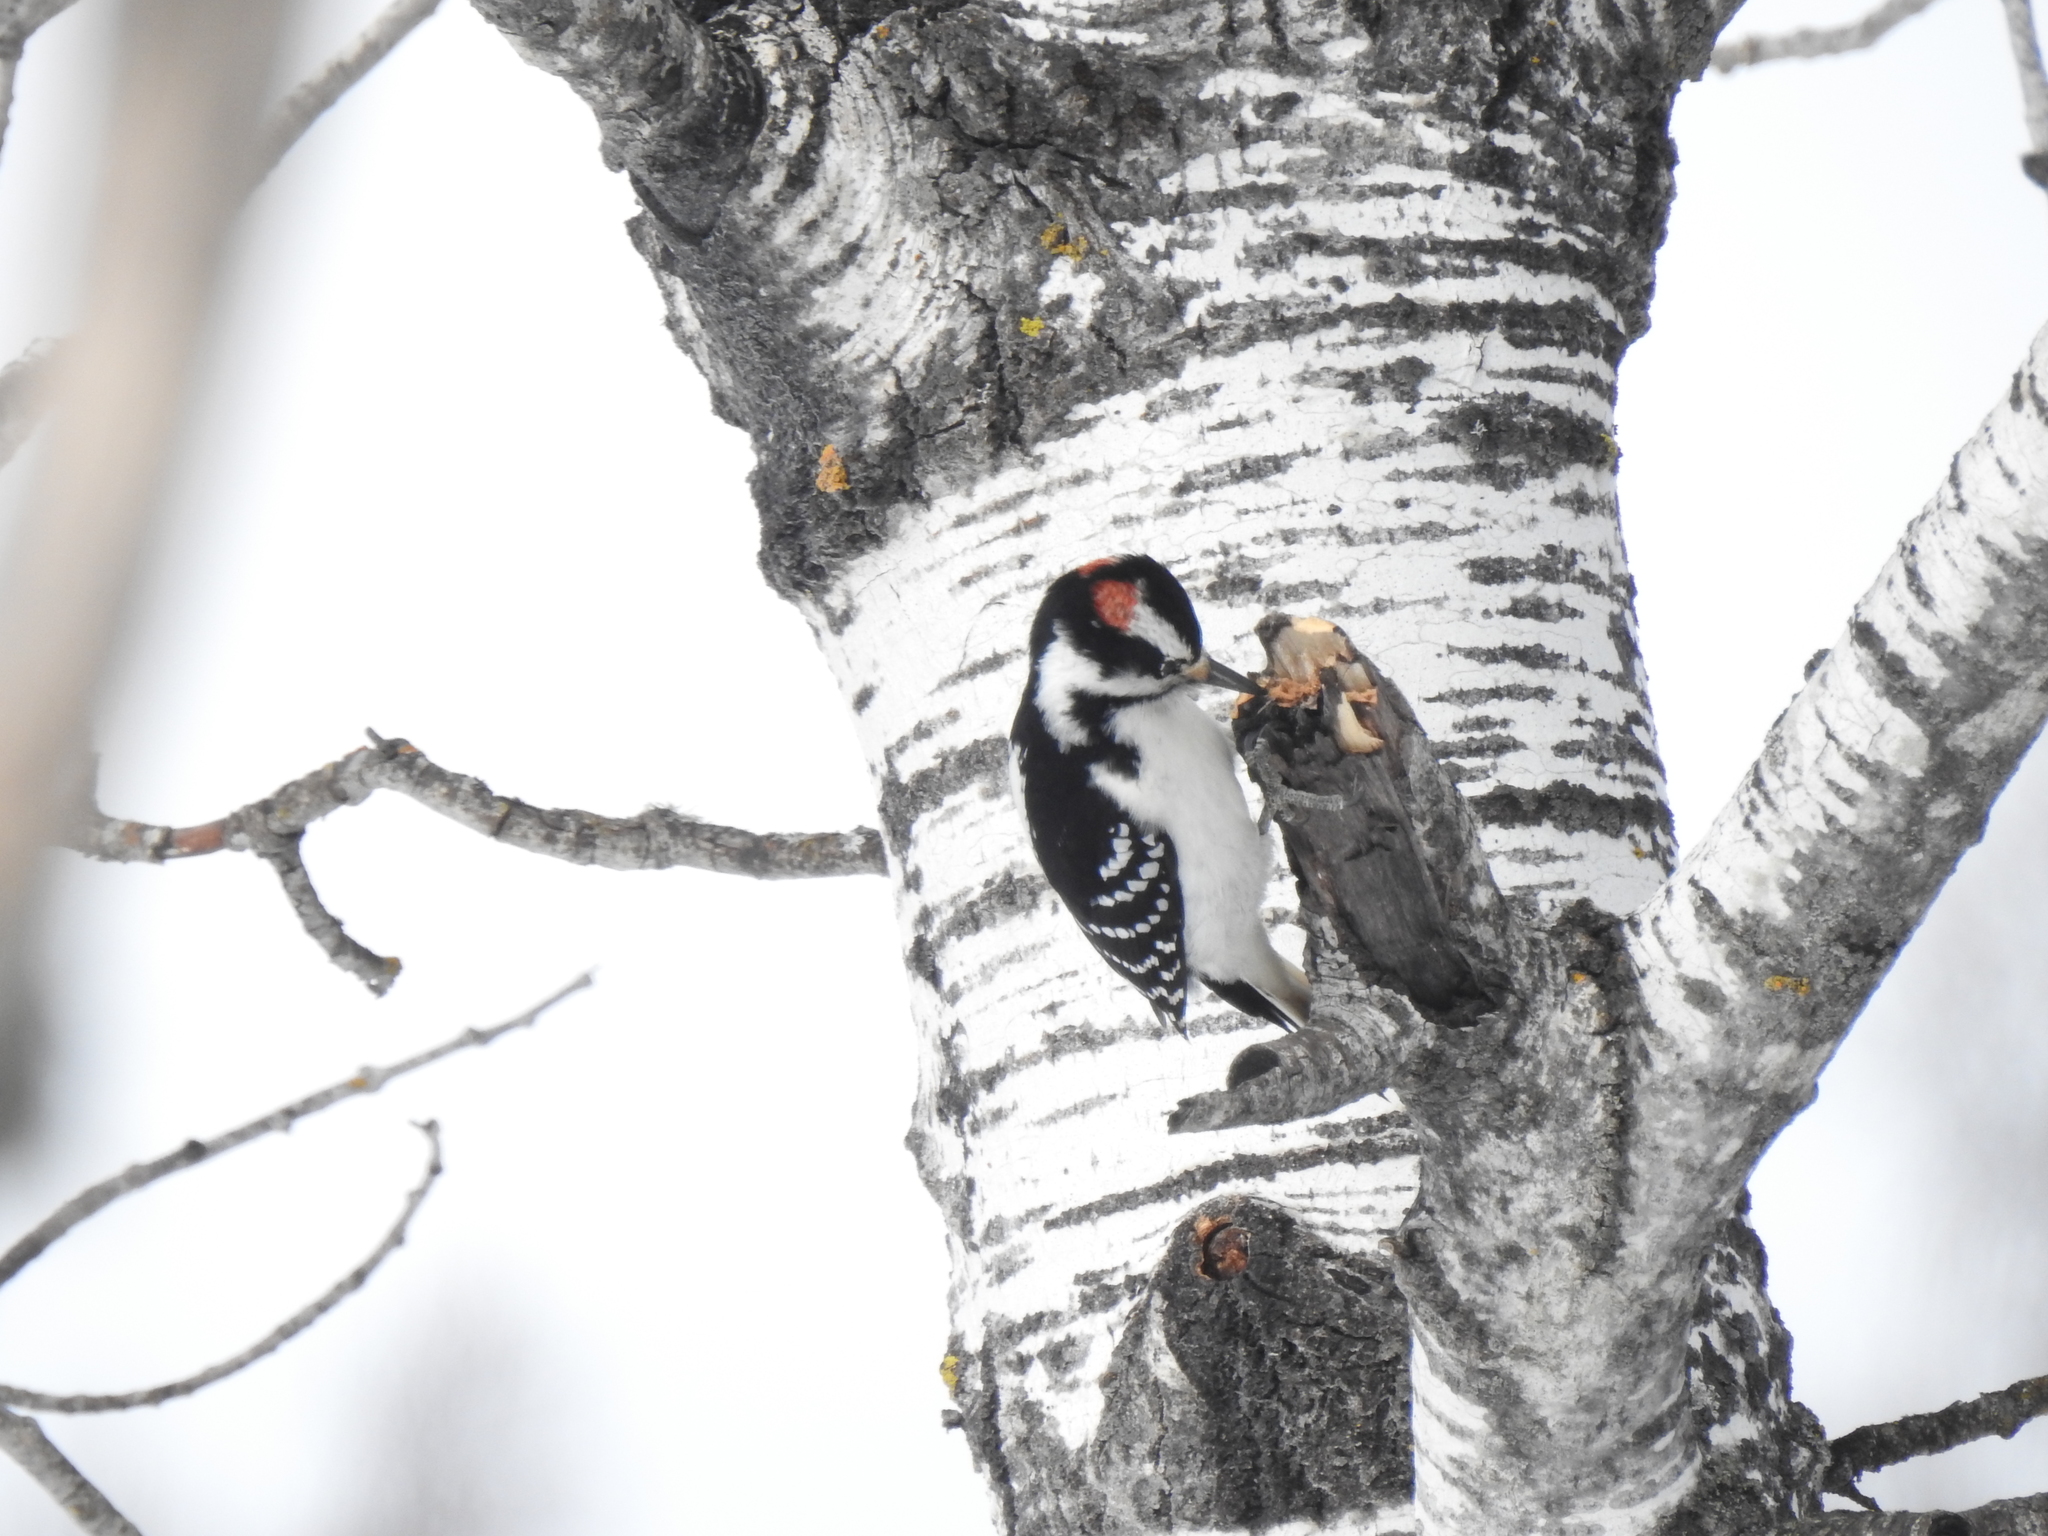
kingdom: Animalia
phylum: Chordata
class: Aves
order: Piciformes
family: Picidae
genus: Leuconotopicus
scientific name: Leuconotopicus villosus
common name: Hairy woodpecker
